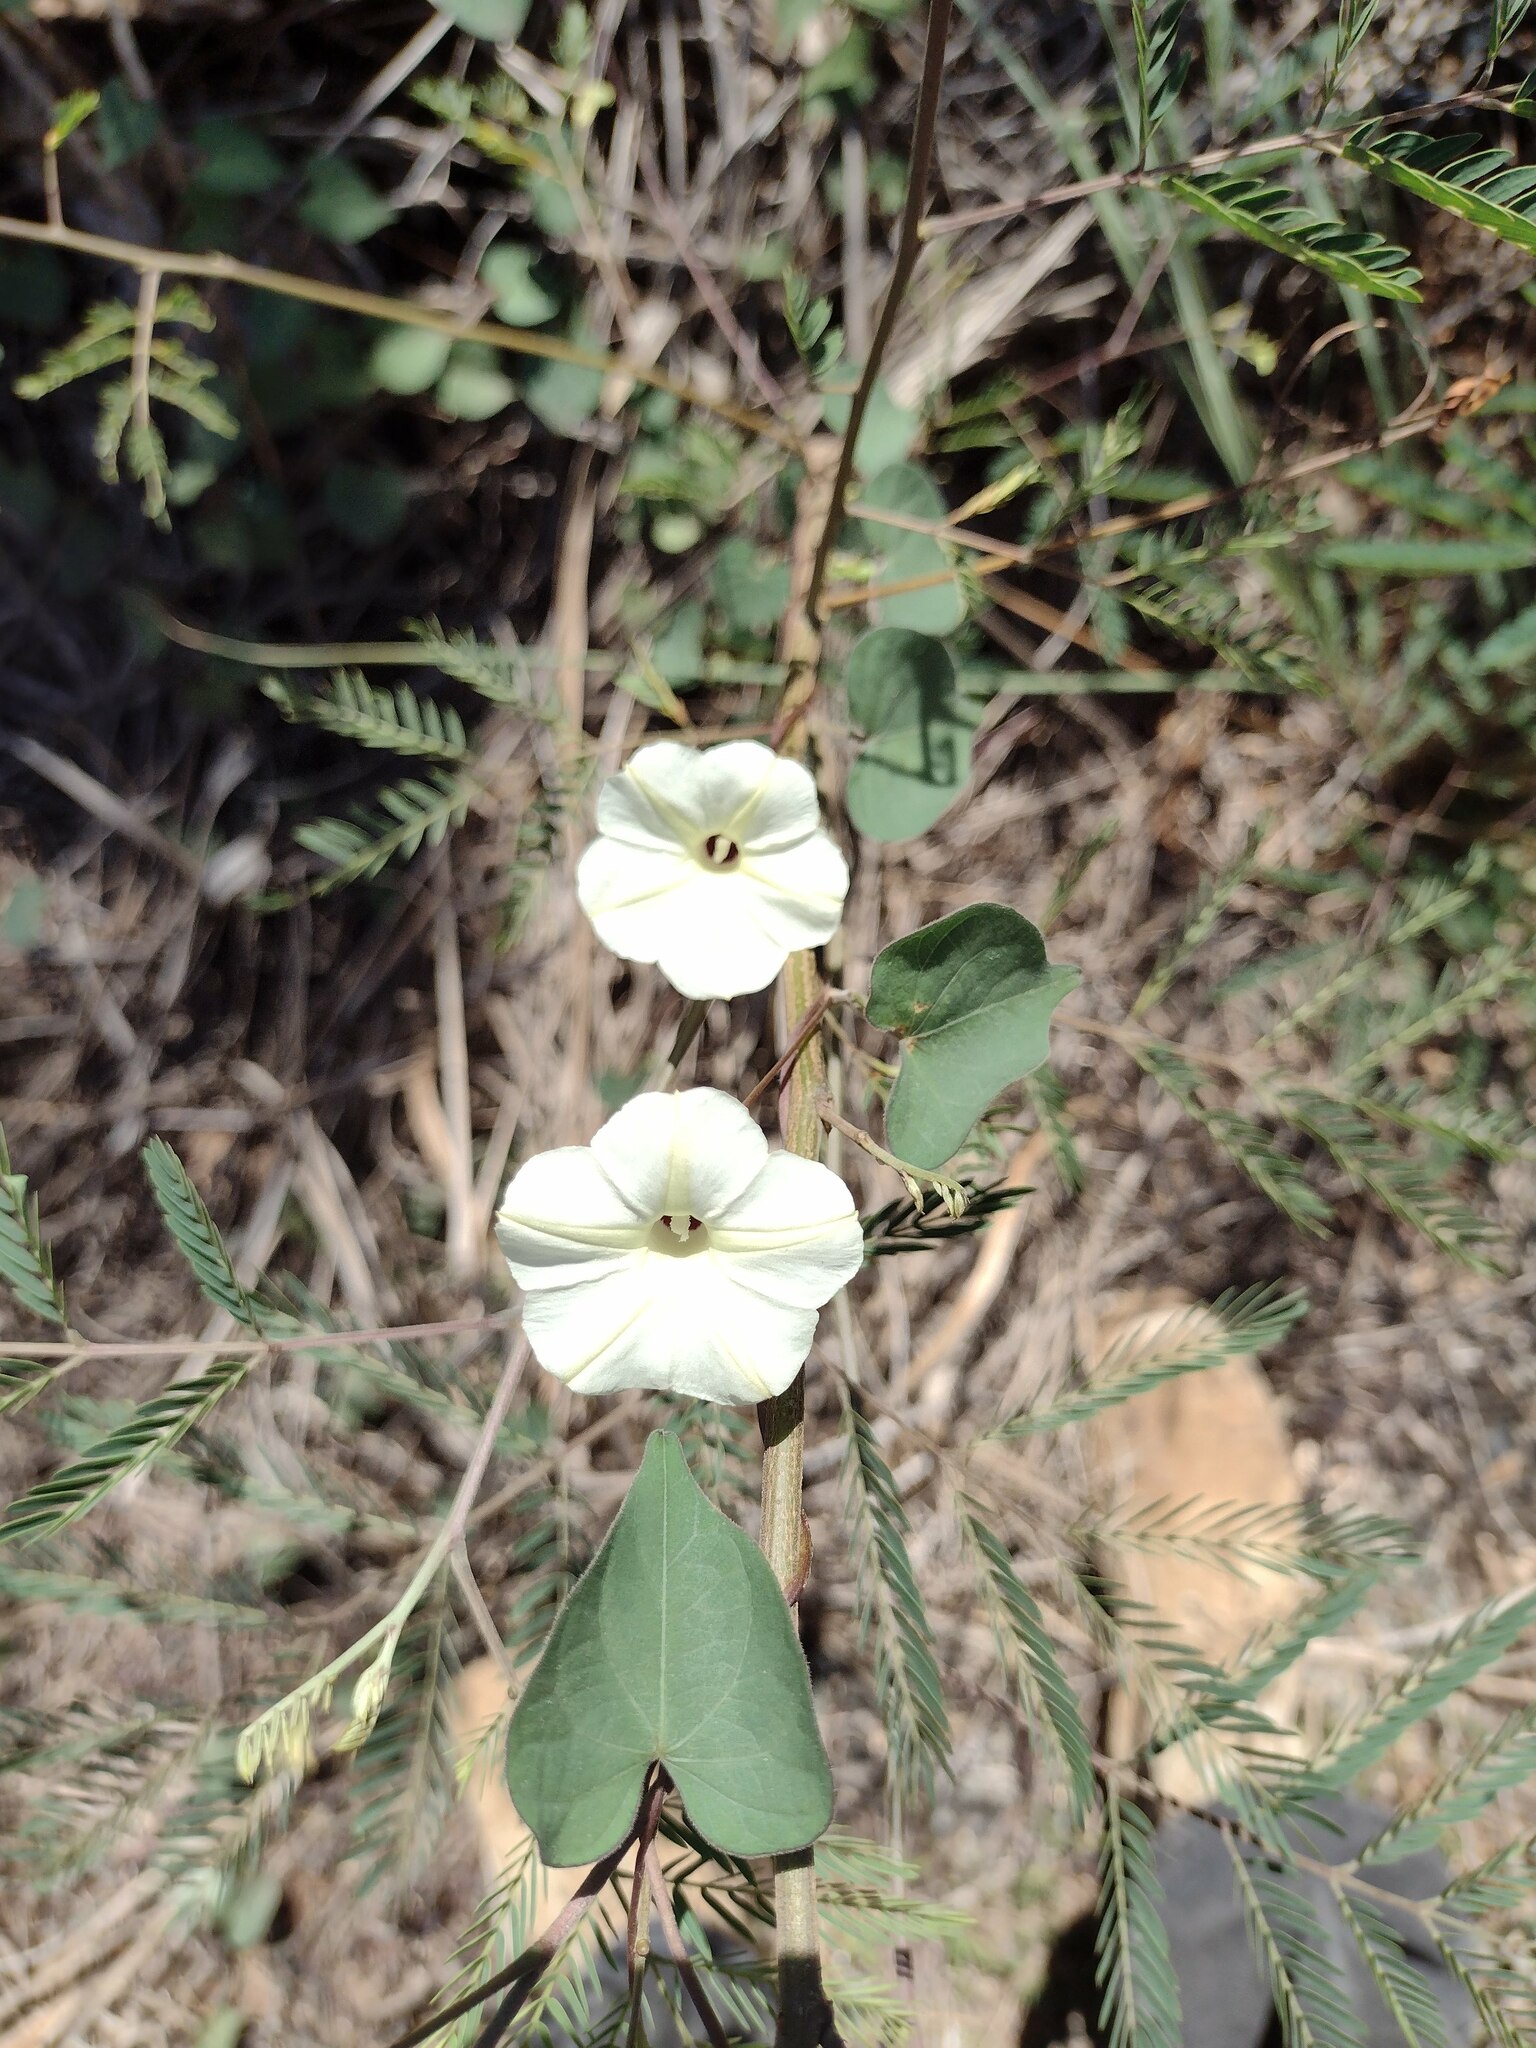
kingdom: Plantae
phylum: Tracheophyta
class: Magnoliopsida
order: Solanales
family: Convolvulaceae
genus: Ipomoea
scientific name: Ipomoea obscura
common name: Obscure morning-glory
